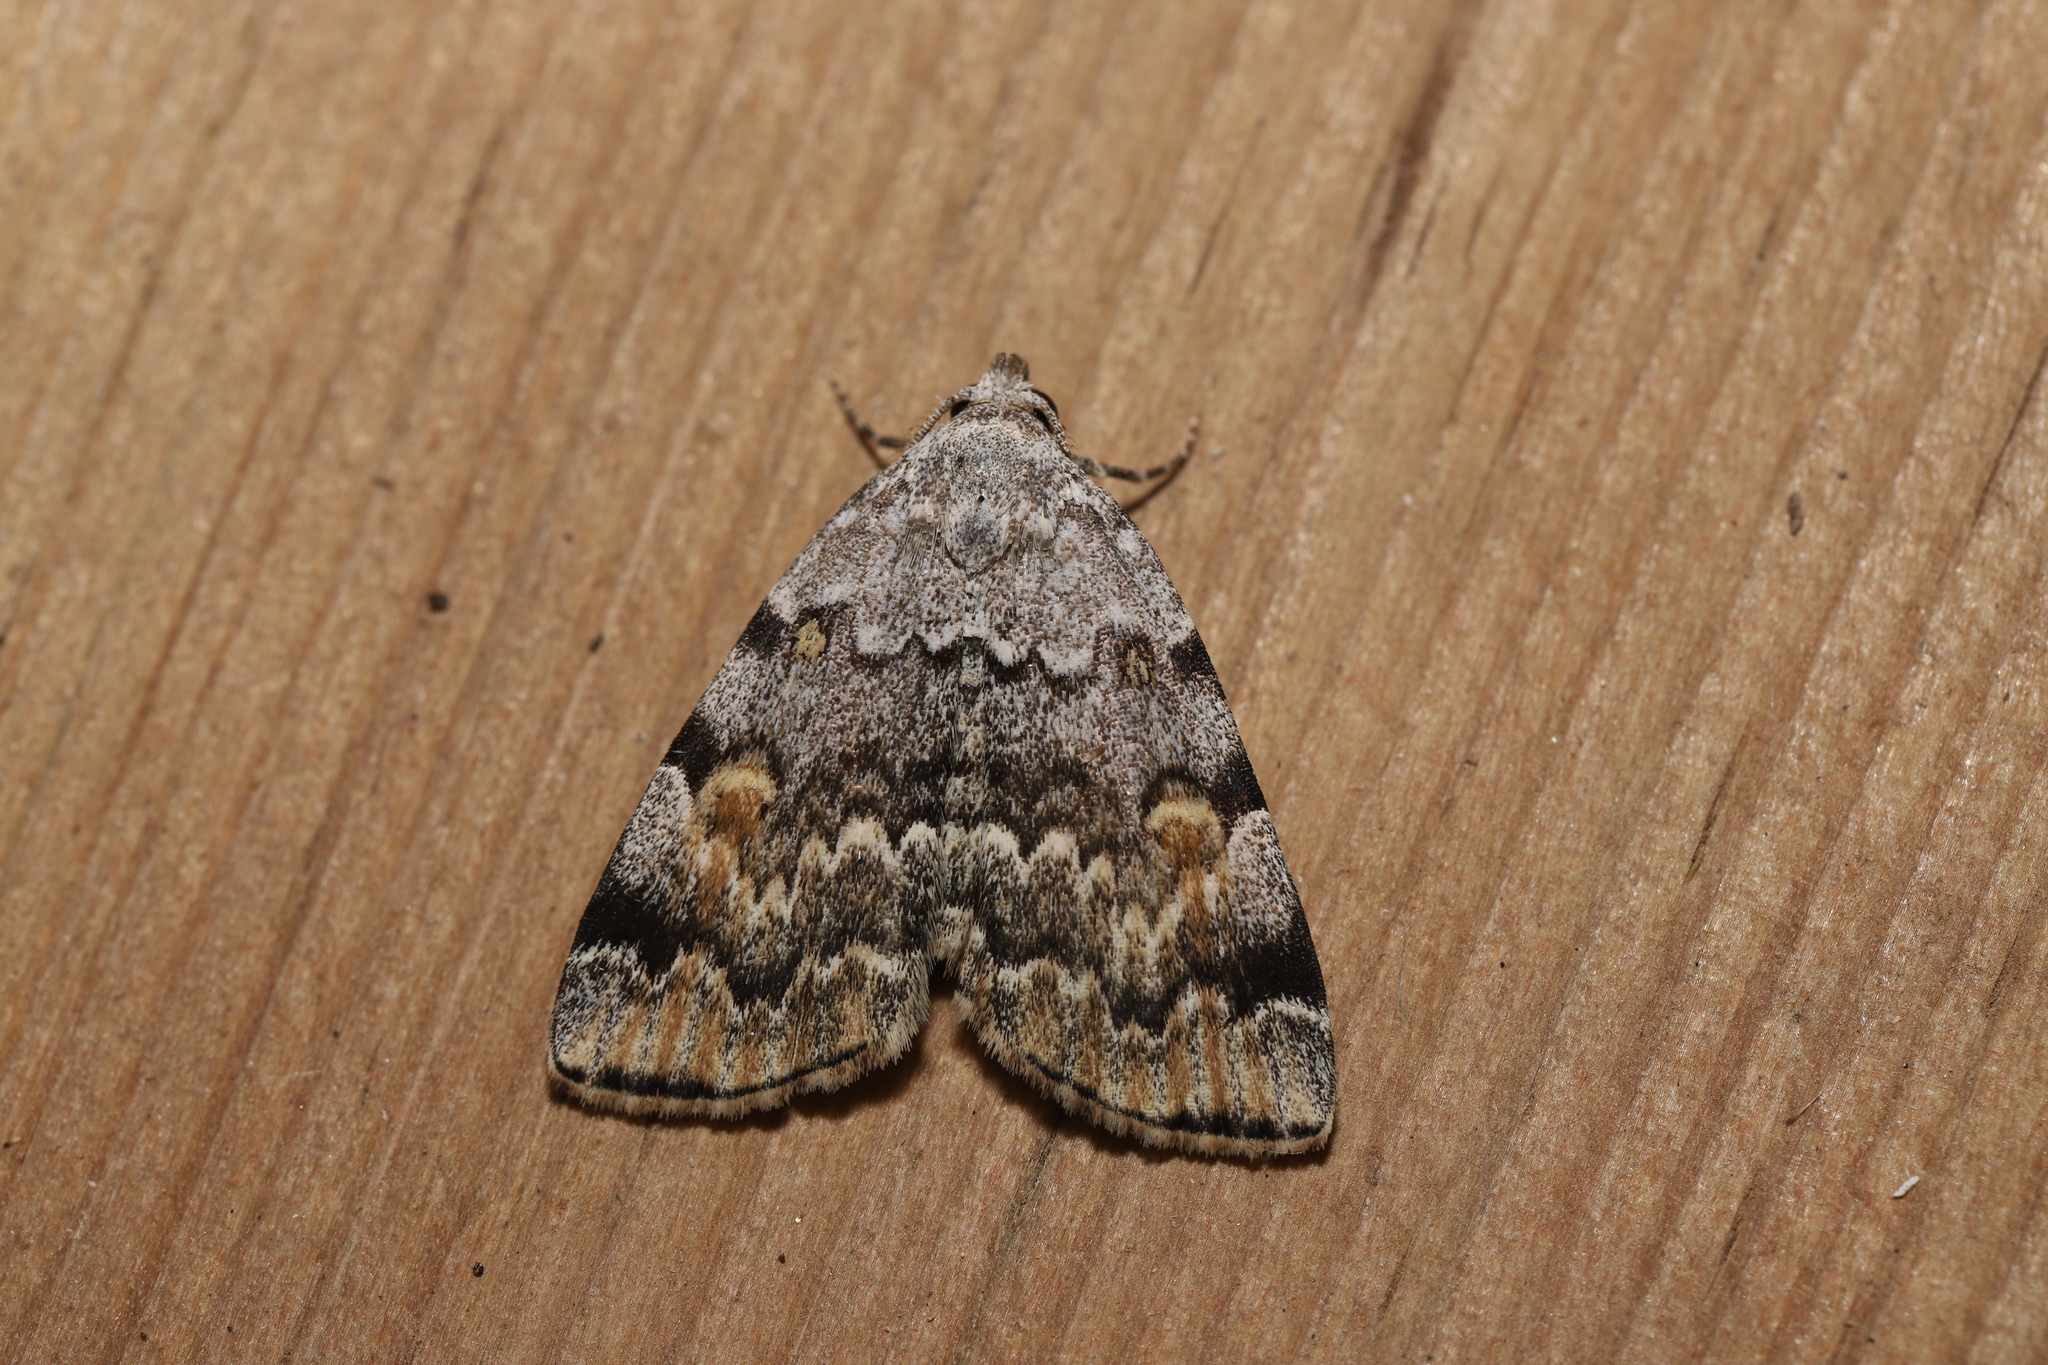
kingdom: Animalia
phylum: Arthropoda
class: Insecta
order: Lepidoptera
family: Erebidae
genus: Idia
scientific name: Idia americalis
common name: American idia moth
